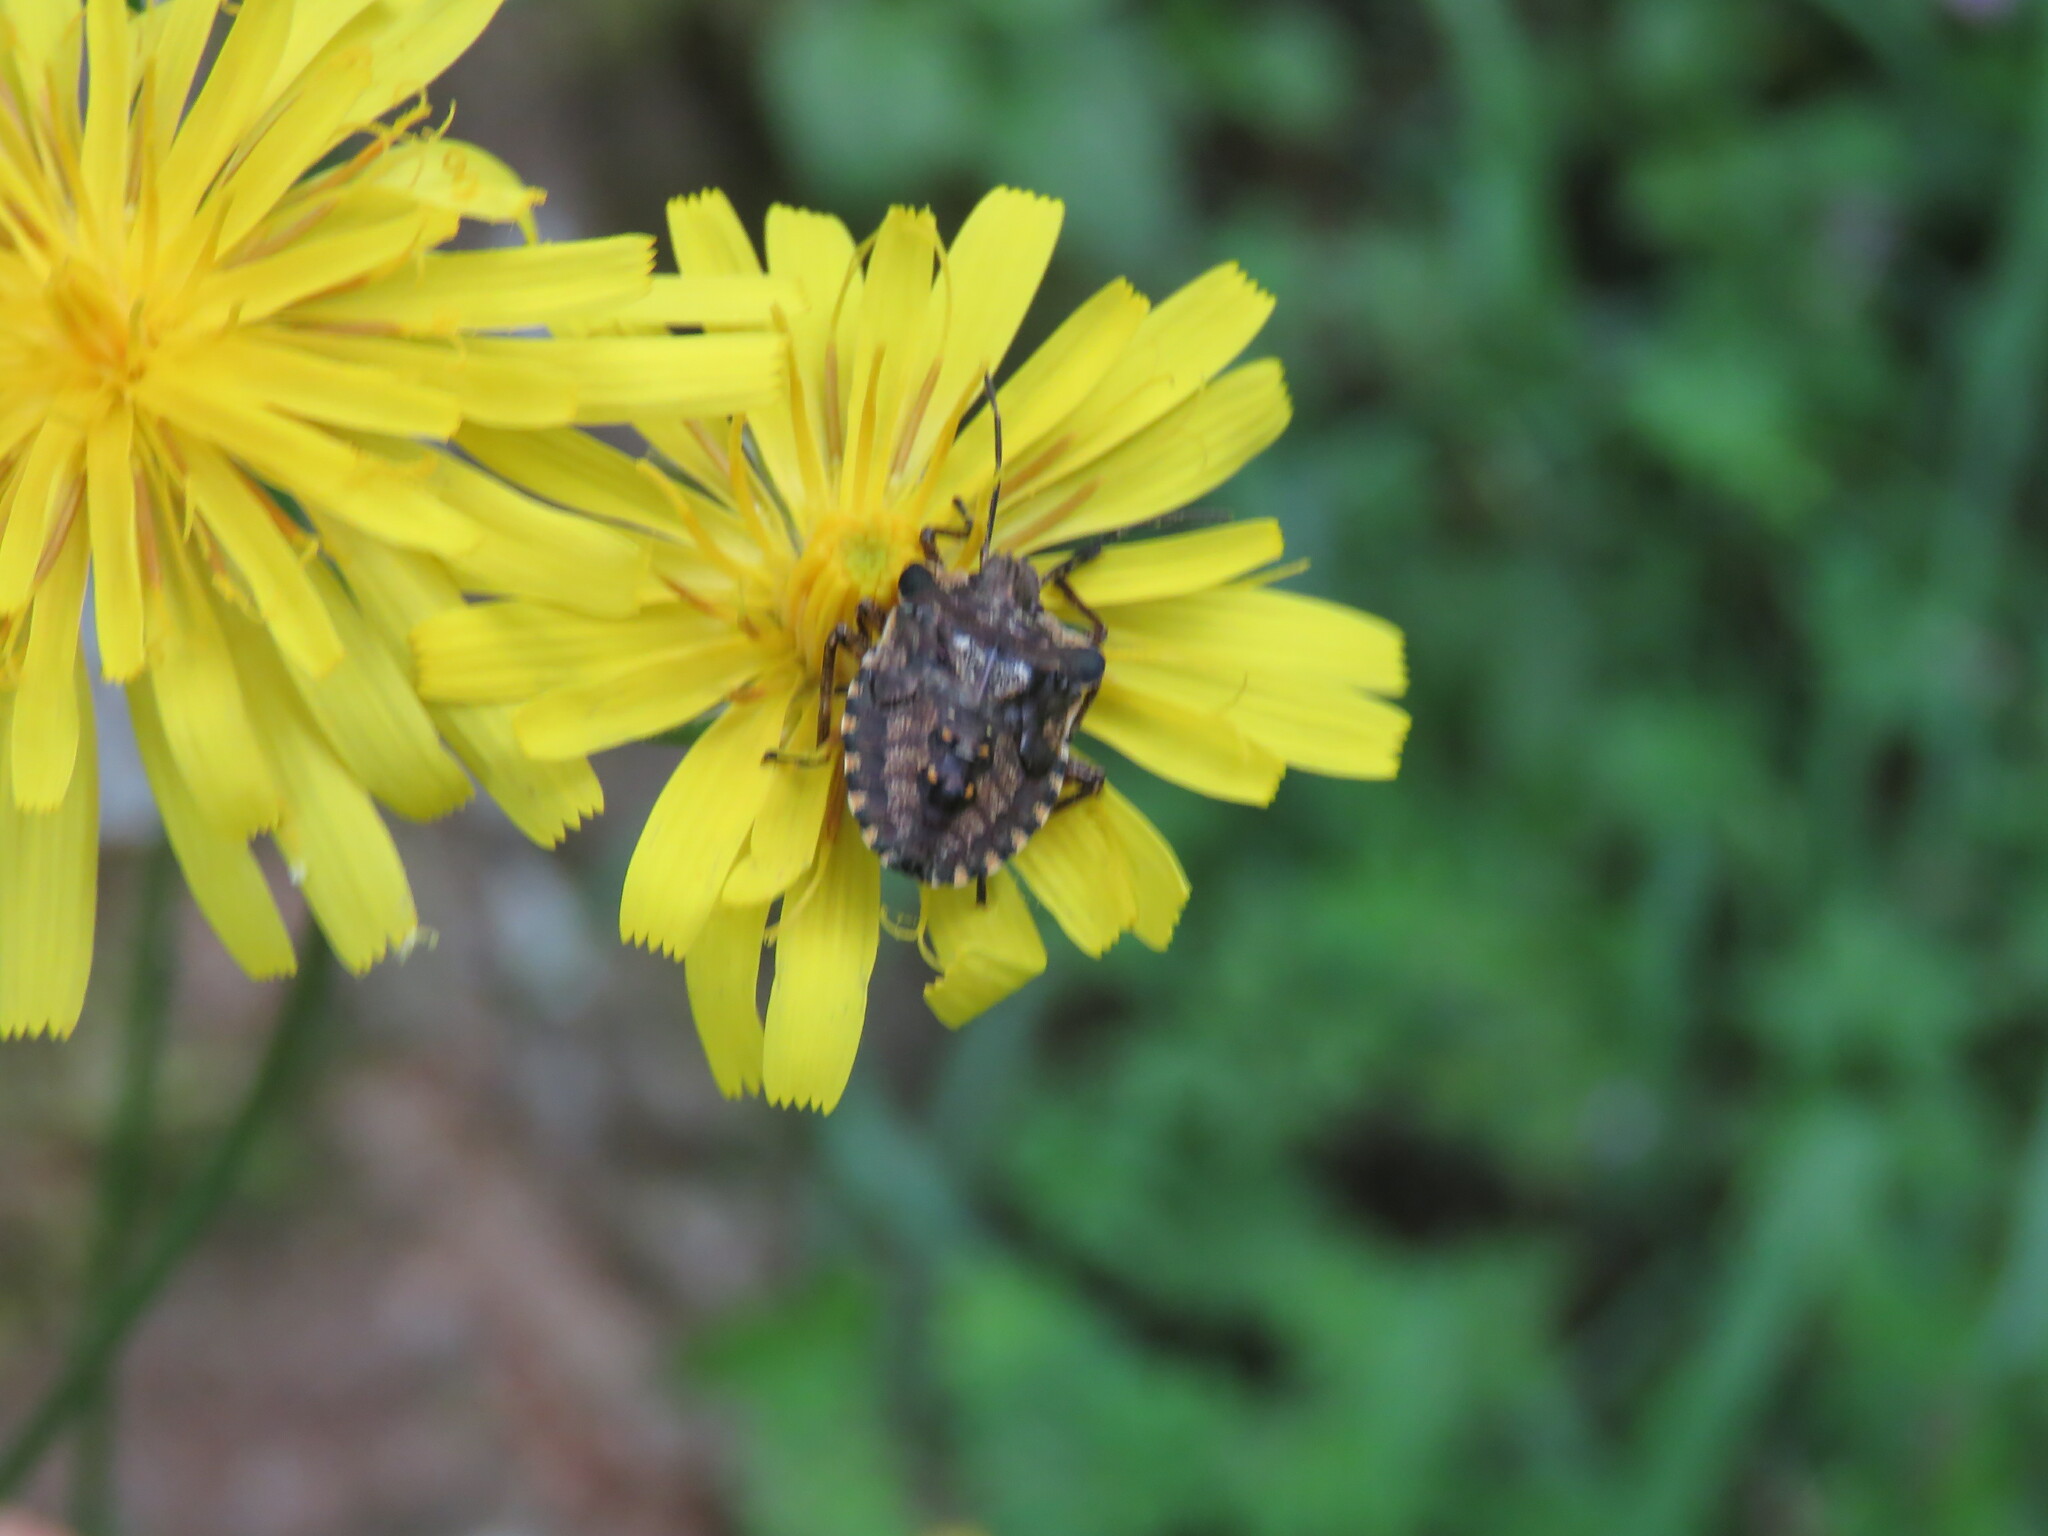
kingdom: Animalia
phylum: Arthropoda
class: Insecta
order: Hemiptera
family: Pentatomidae
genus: Pentatoma
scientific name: Pentatoma rufipes
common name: Forest bug
